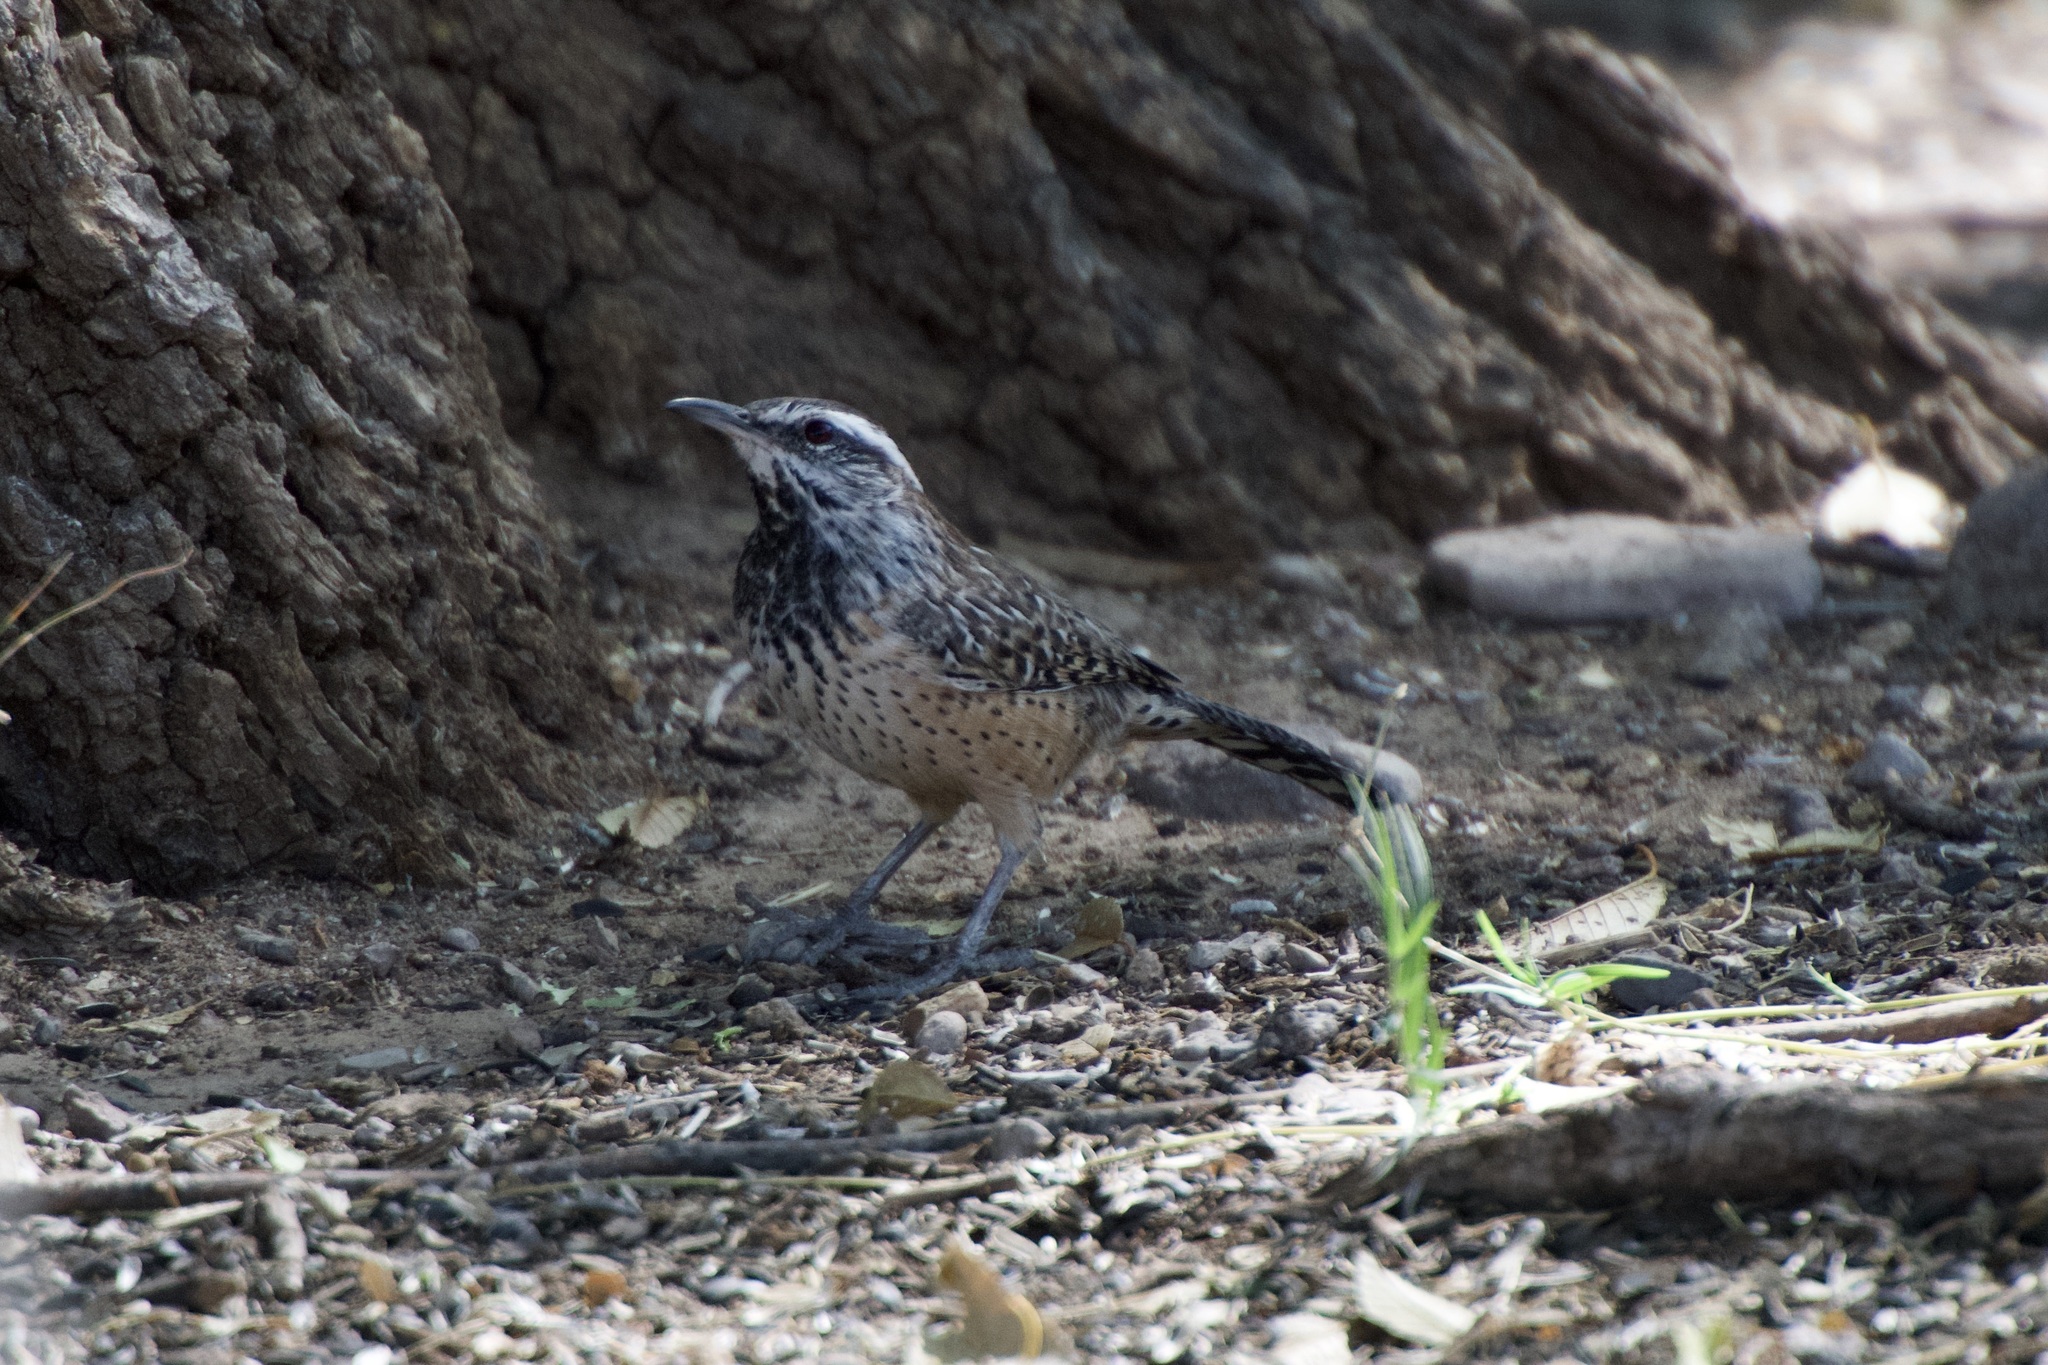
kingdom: Animalia
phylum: Chordata
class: Aves
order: Passeriformes
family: Troglodytidae
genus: Campylorhynchus
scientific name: Campylorhynchus brunneicapillus
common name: Cactus wren
